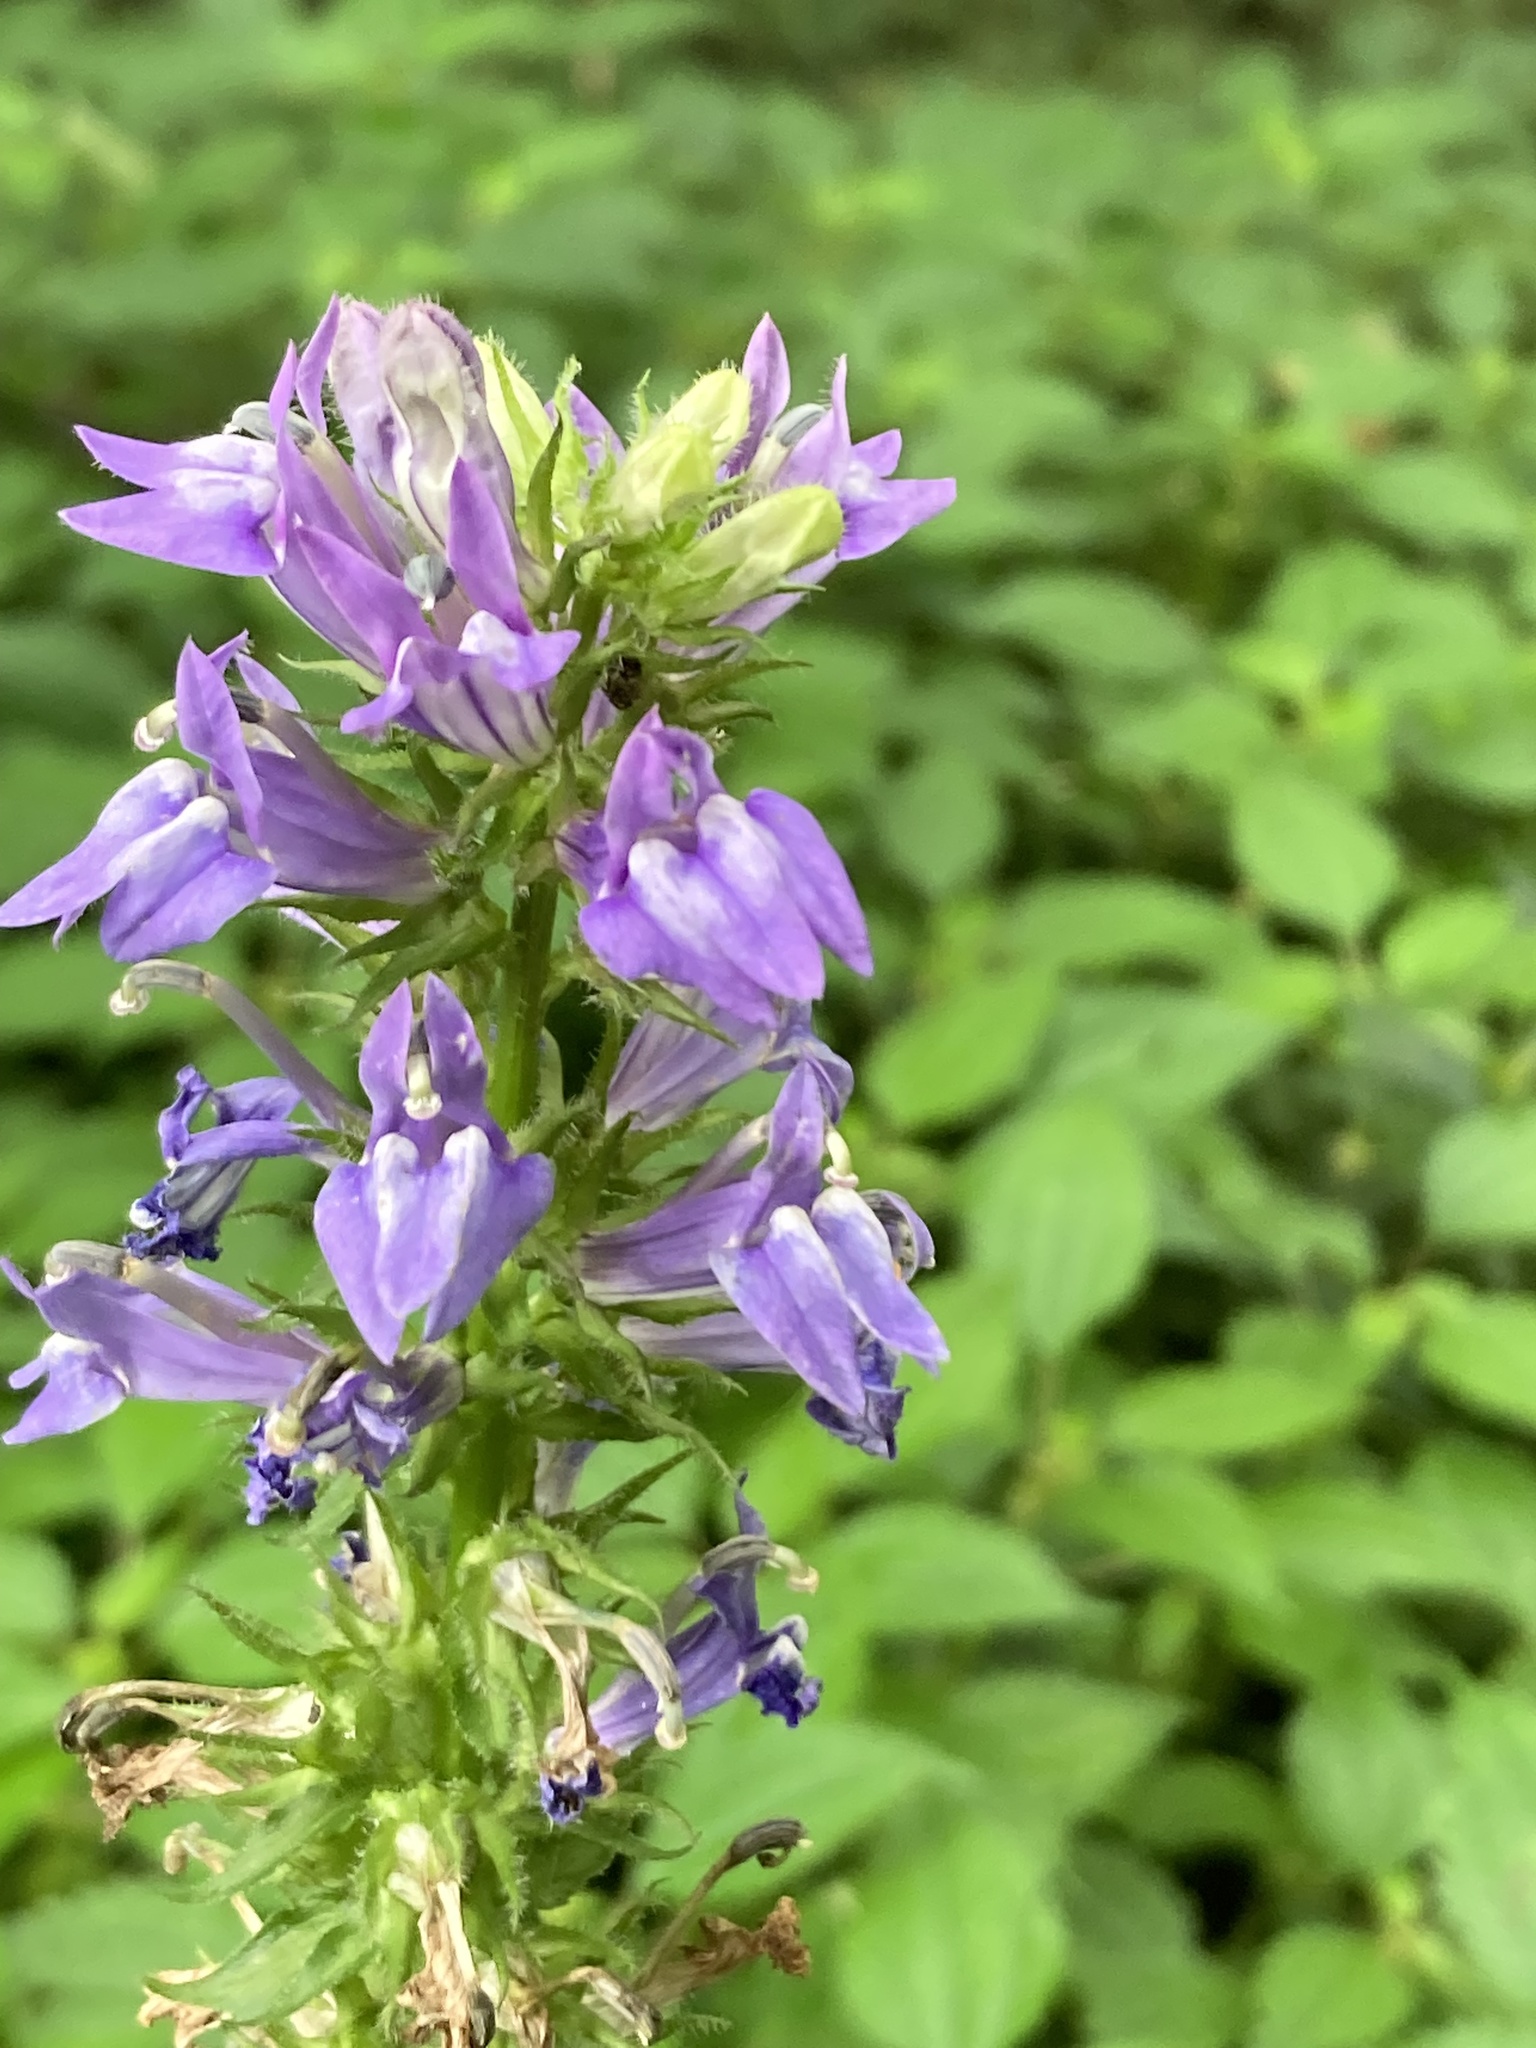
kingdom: Plantae
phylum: Tracheophyta
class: Magnoliopsida
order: Asterales
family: Campanulaceae
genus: Lobelia
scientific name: Lobelia siphilitica
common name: Great lobelia
